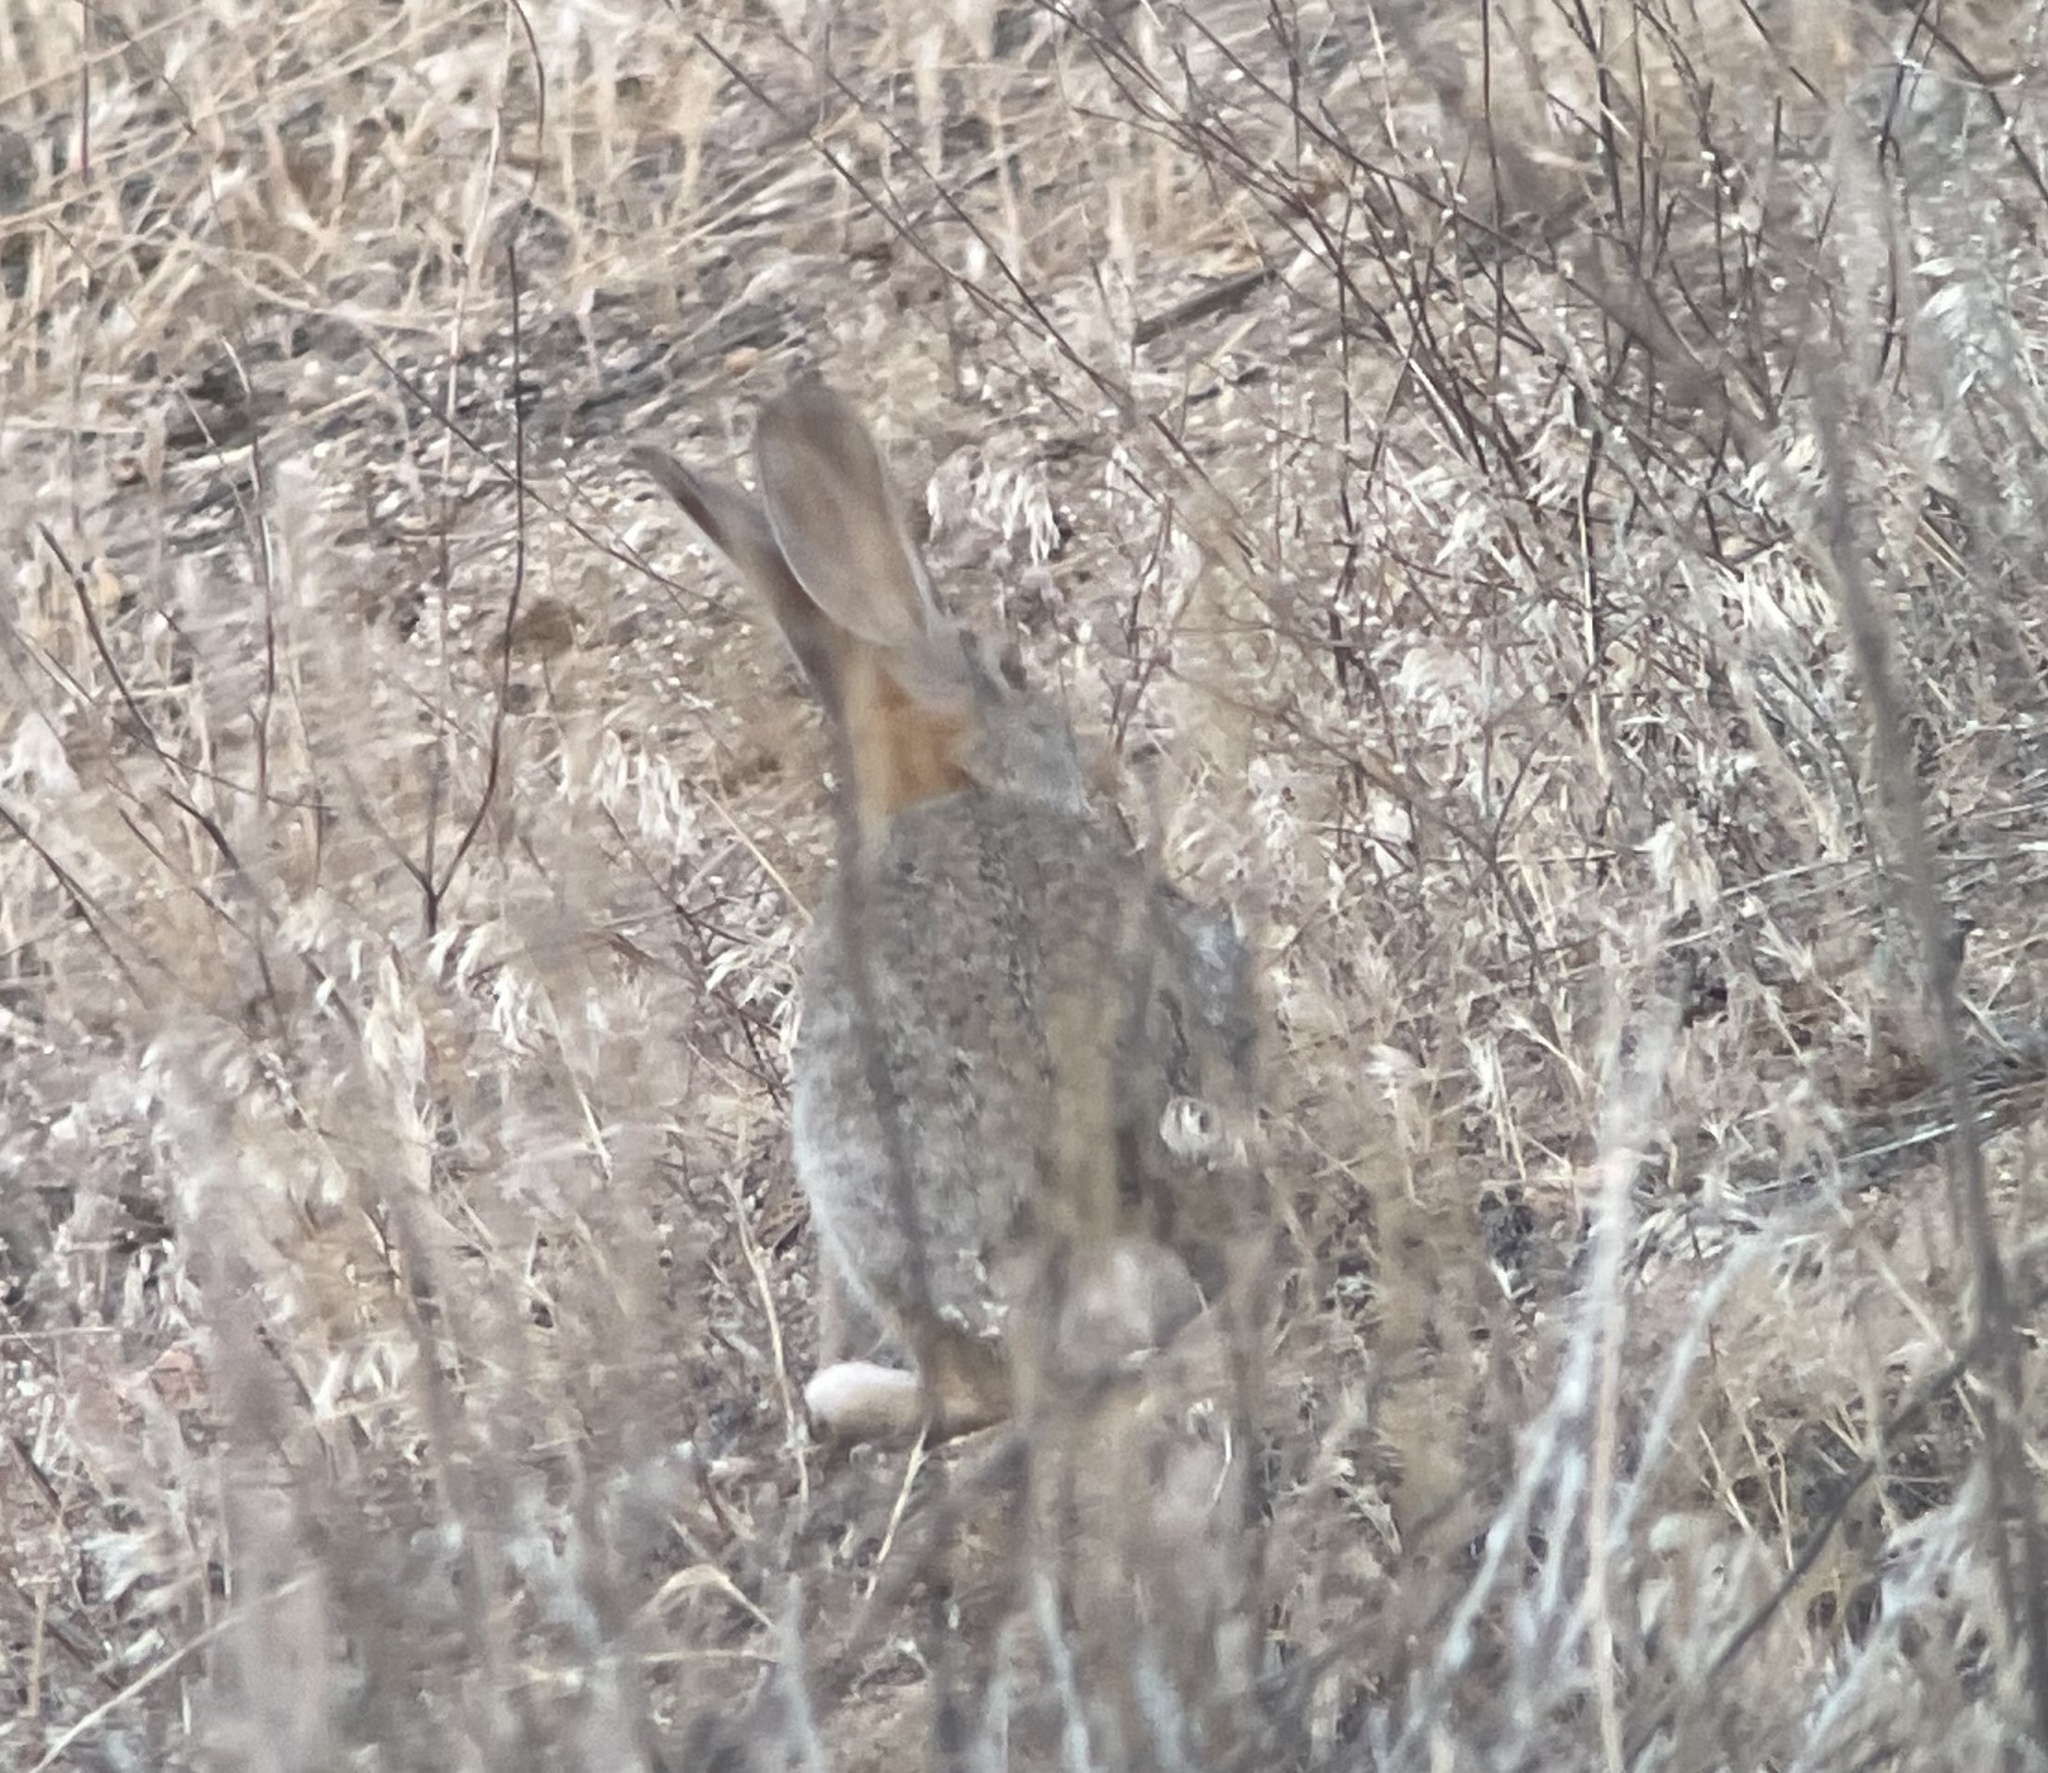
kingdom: Animalia
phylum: Chordata
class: Mammalia
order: Lagomorpha
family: Leporidae
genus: Sylvilagus
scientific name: Sylvilagus audubonii
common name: Desert cottontail
